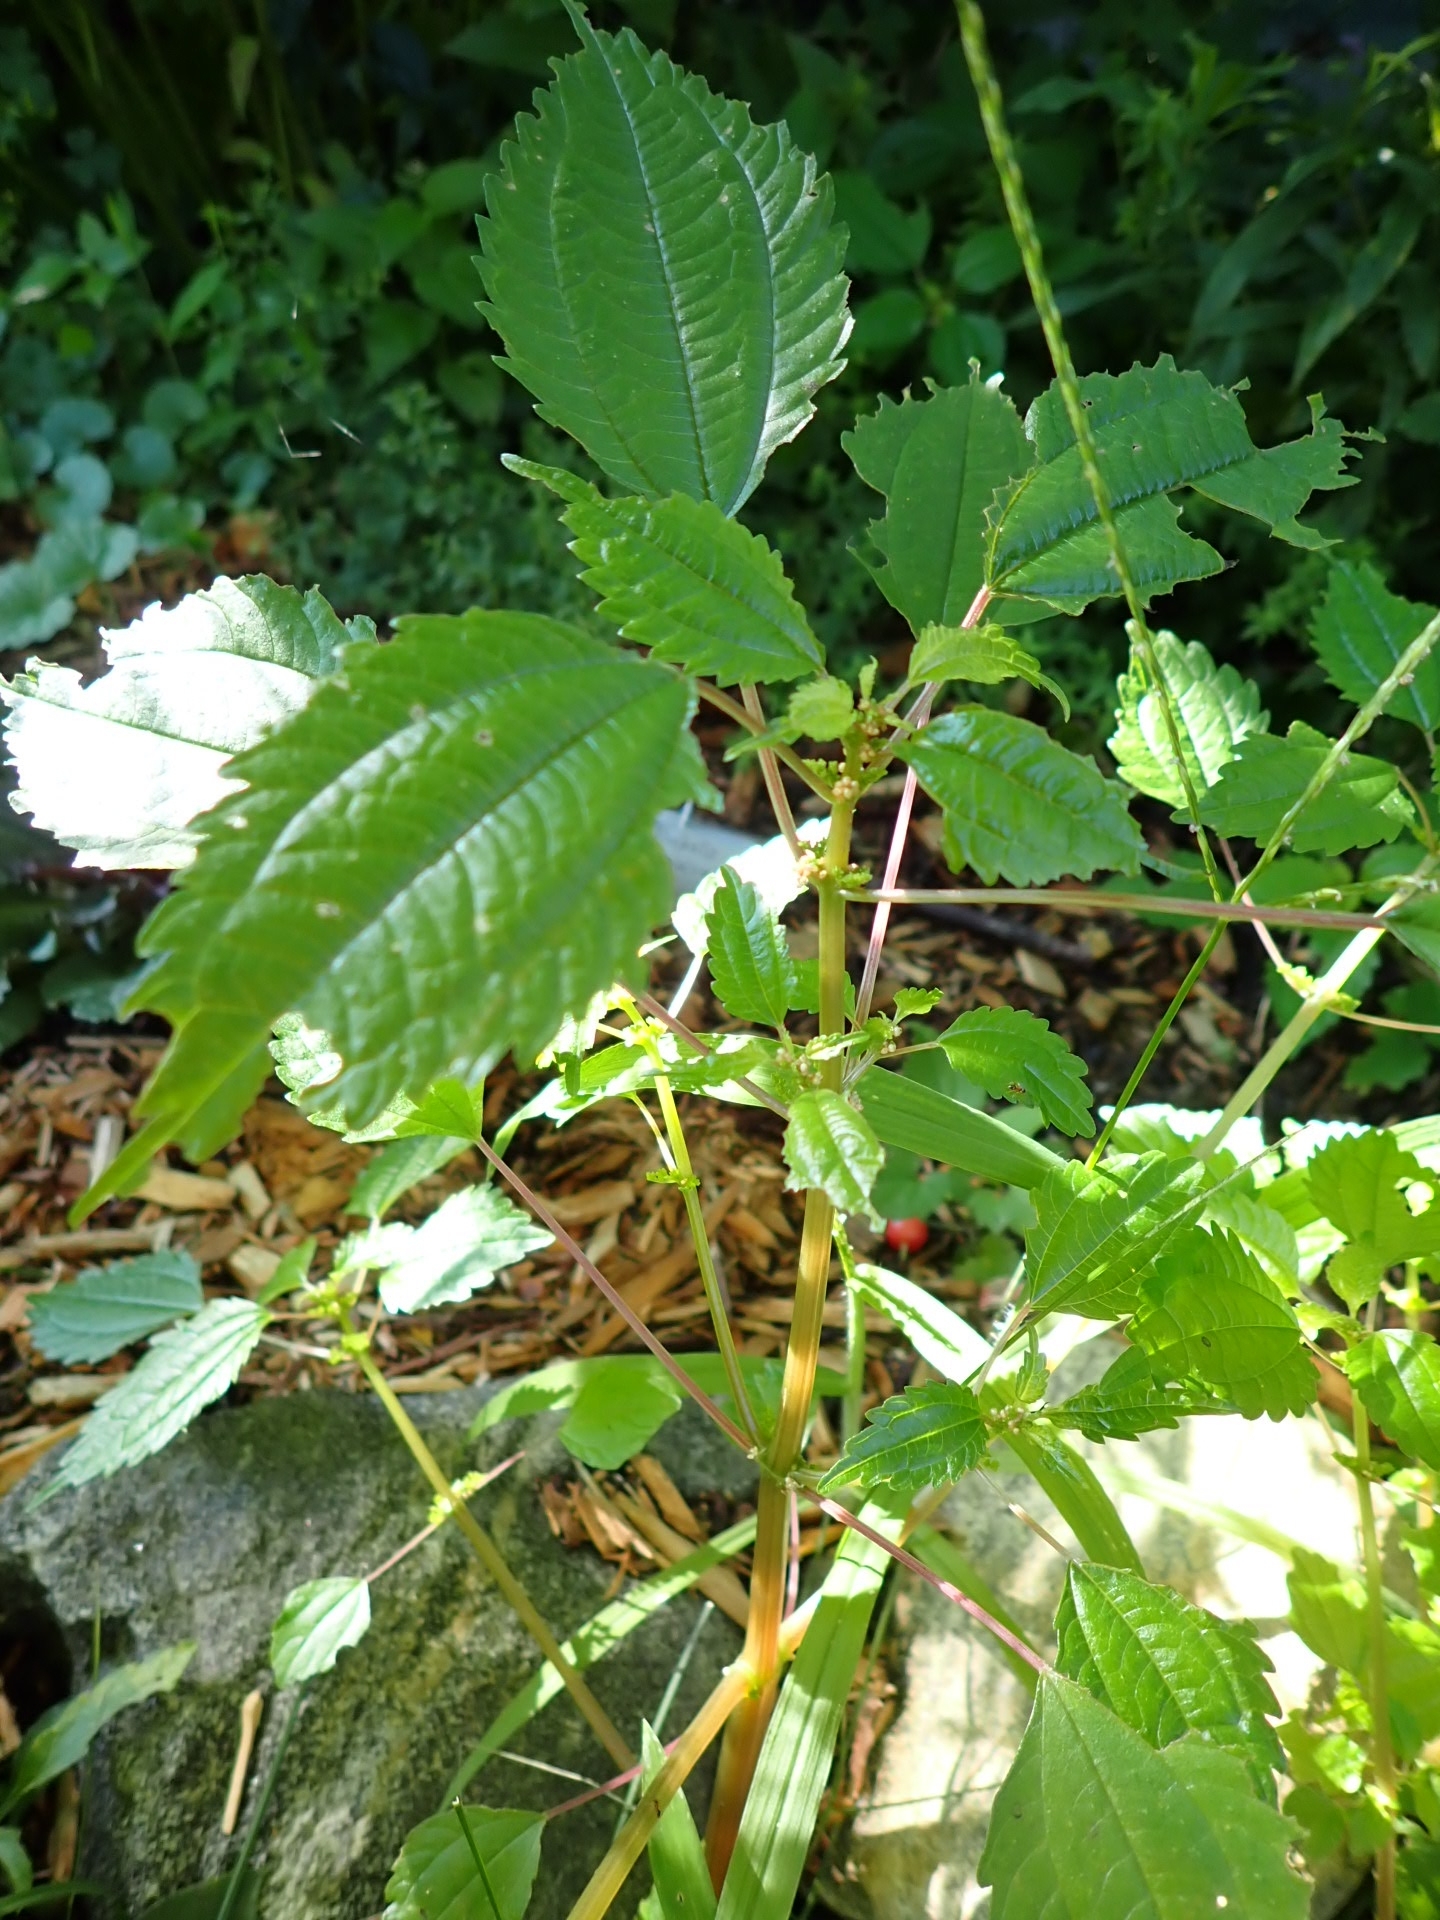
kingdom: Plantae
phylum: Tracheophyta
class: Magnoliopsida
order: Rosales
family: Urticaceae
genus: Pilea
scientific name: Pilea pumila
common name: Clearweed
